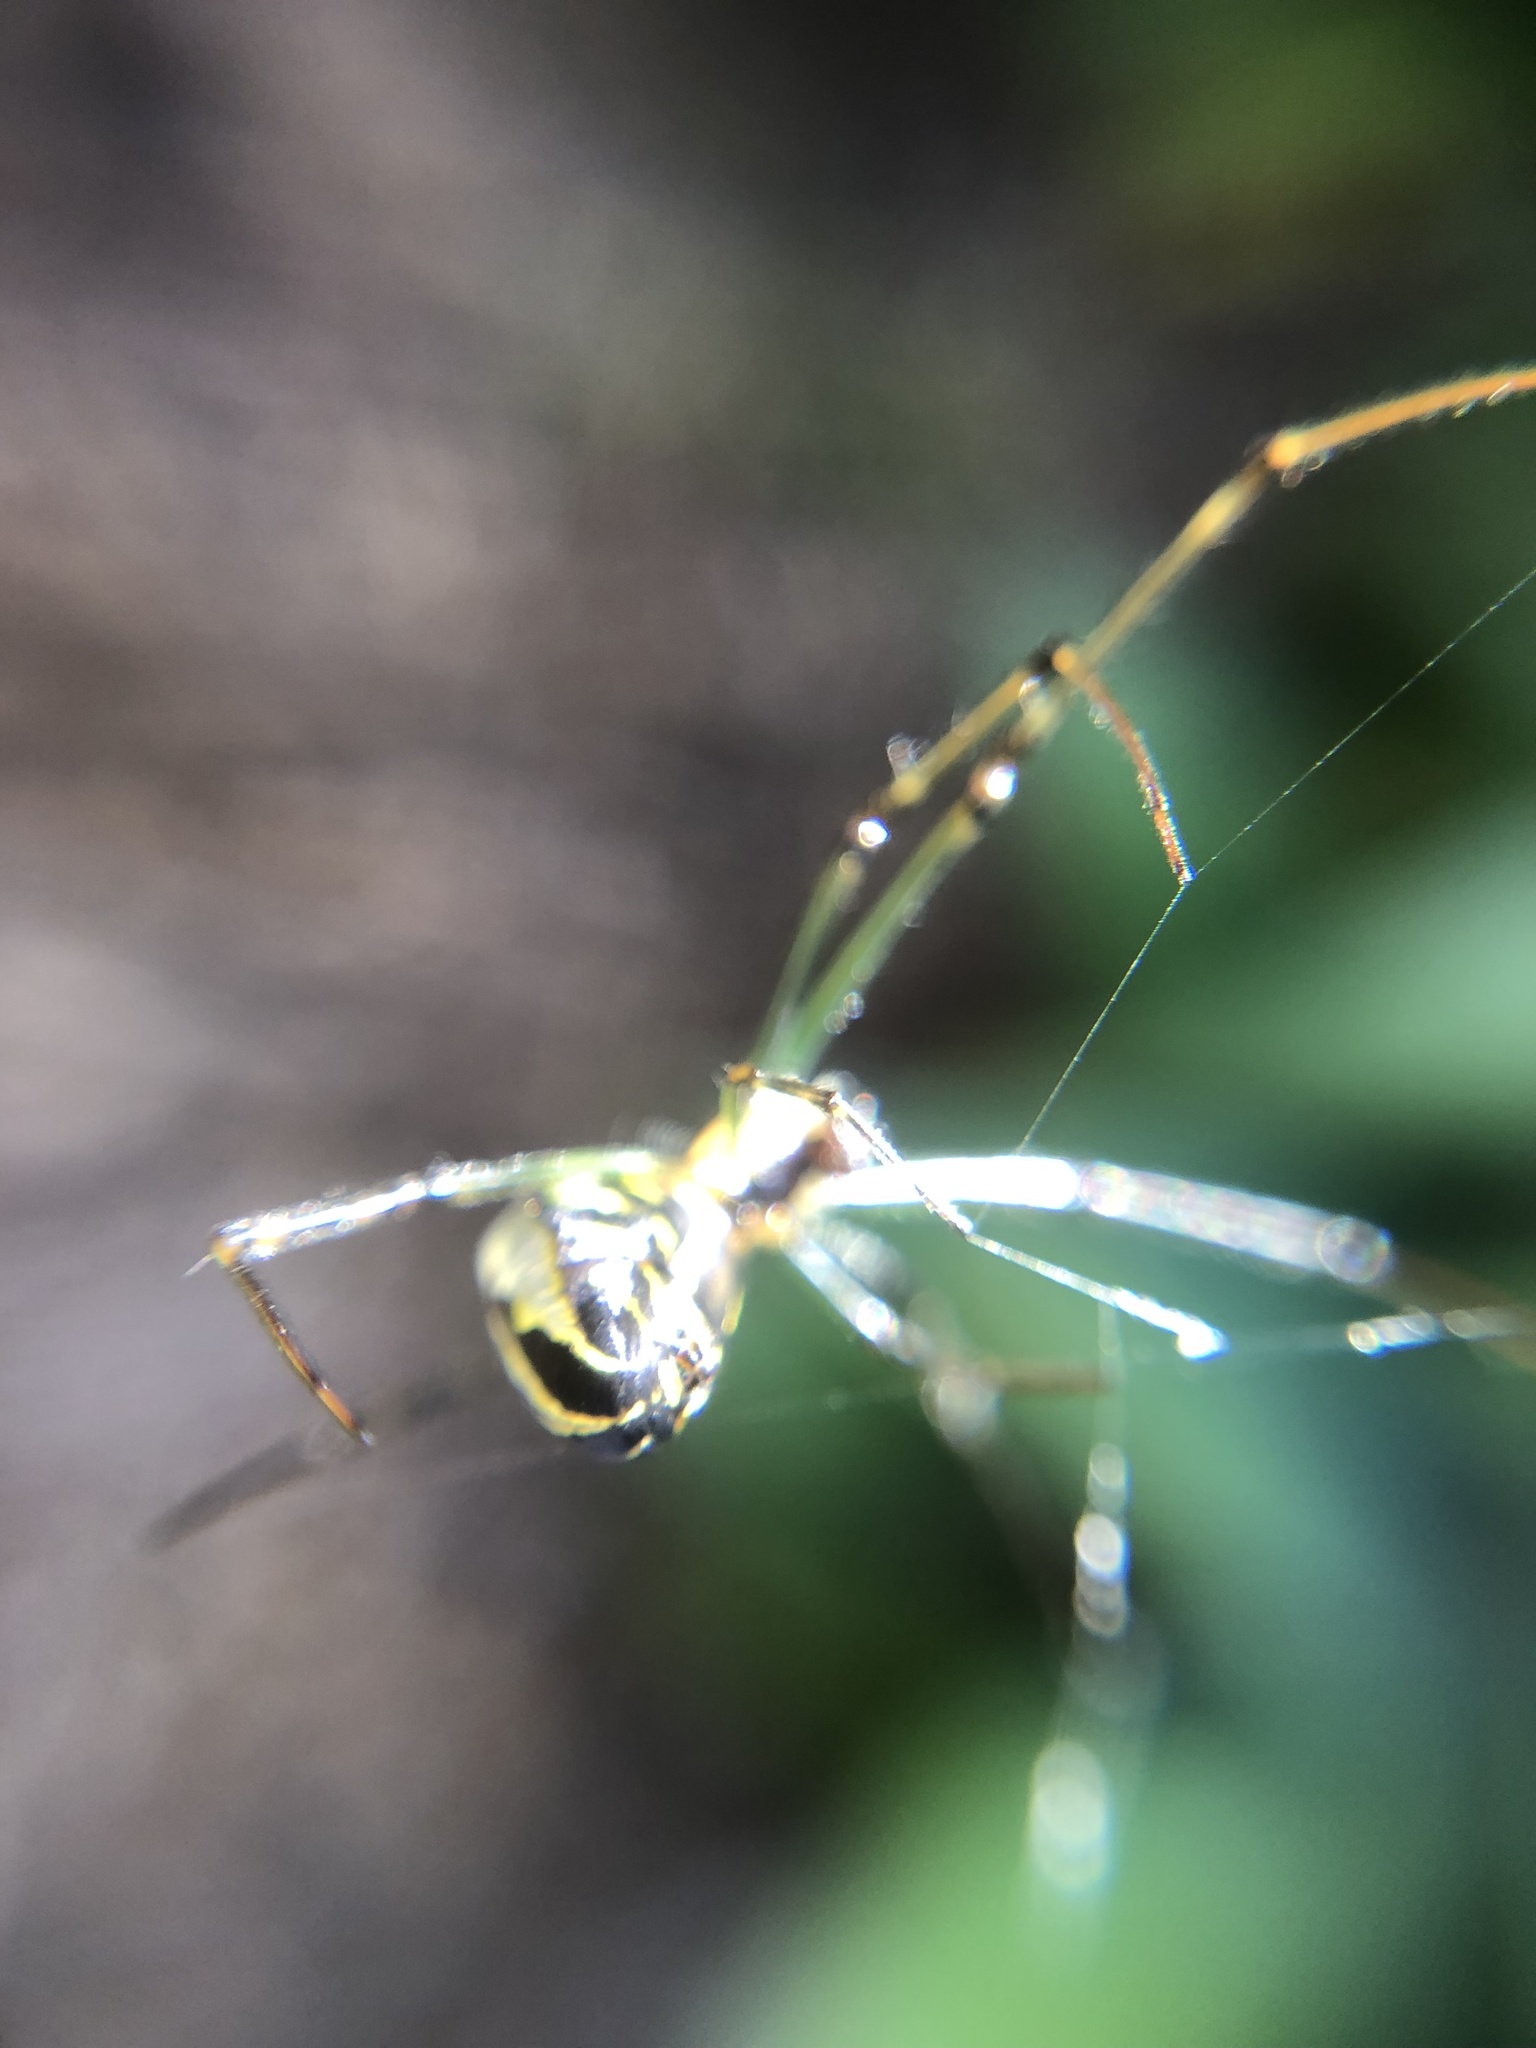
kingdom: Animalia
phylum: Arthropoda
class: Arachnida
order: Araneae
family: Tetragnathidae
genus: Leucauge
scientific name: Leucauge dromedaria
